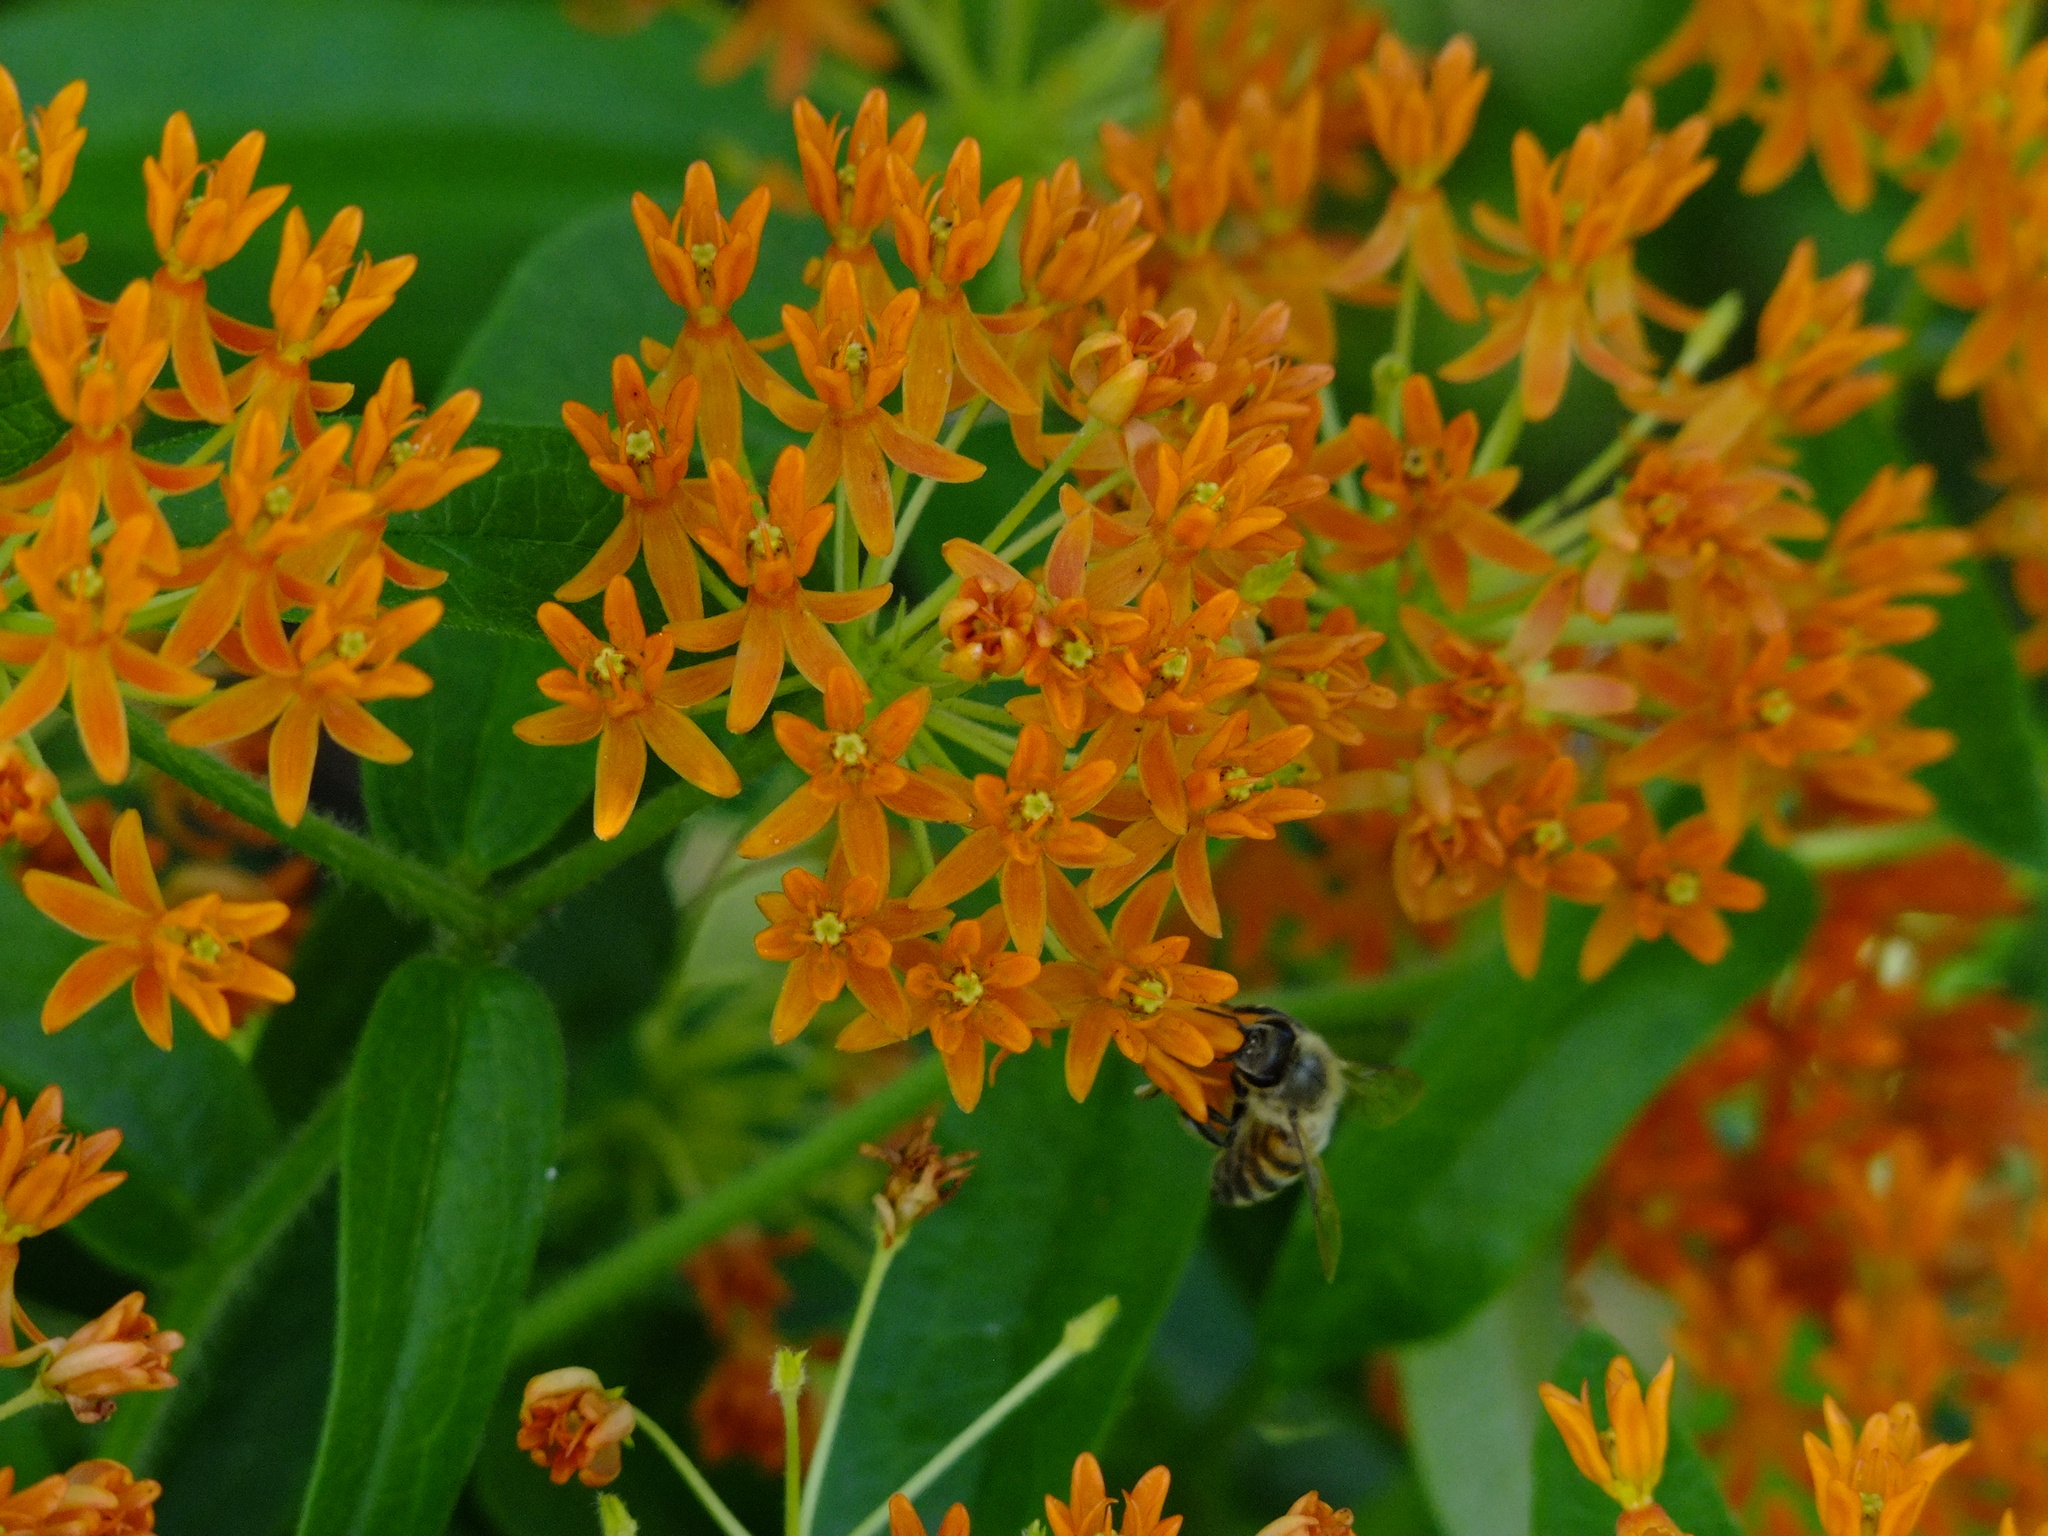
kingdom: Plantae
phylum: Tracheophyta
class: Magnoliopsida
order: Gentianales
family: Apocynaceae
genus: Asclepias
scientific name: Asclepias tuberosa
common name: Butterfly milkweed
